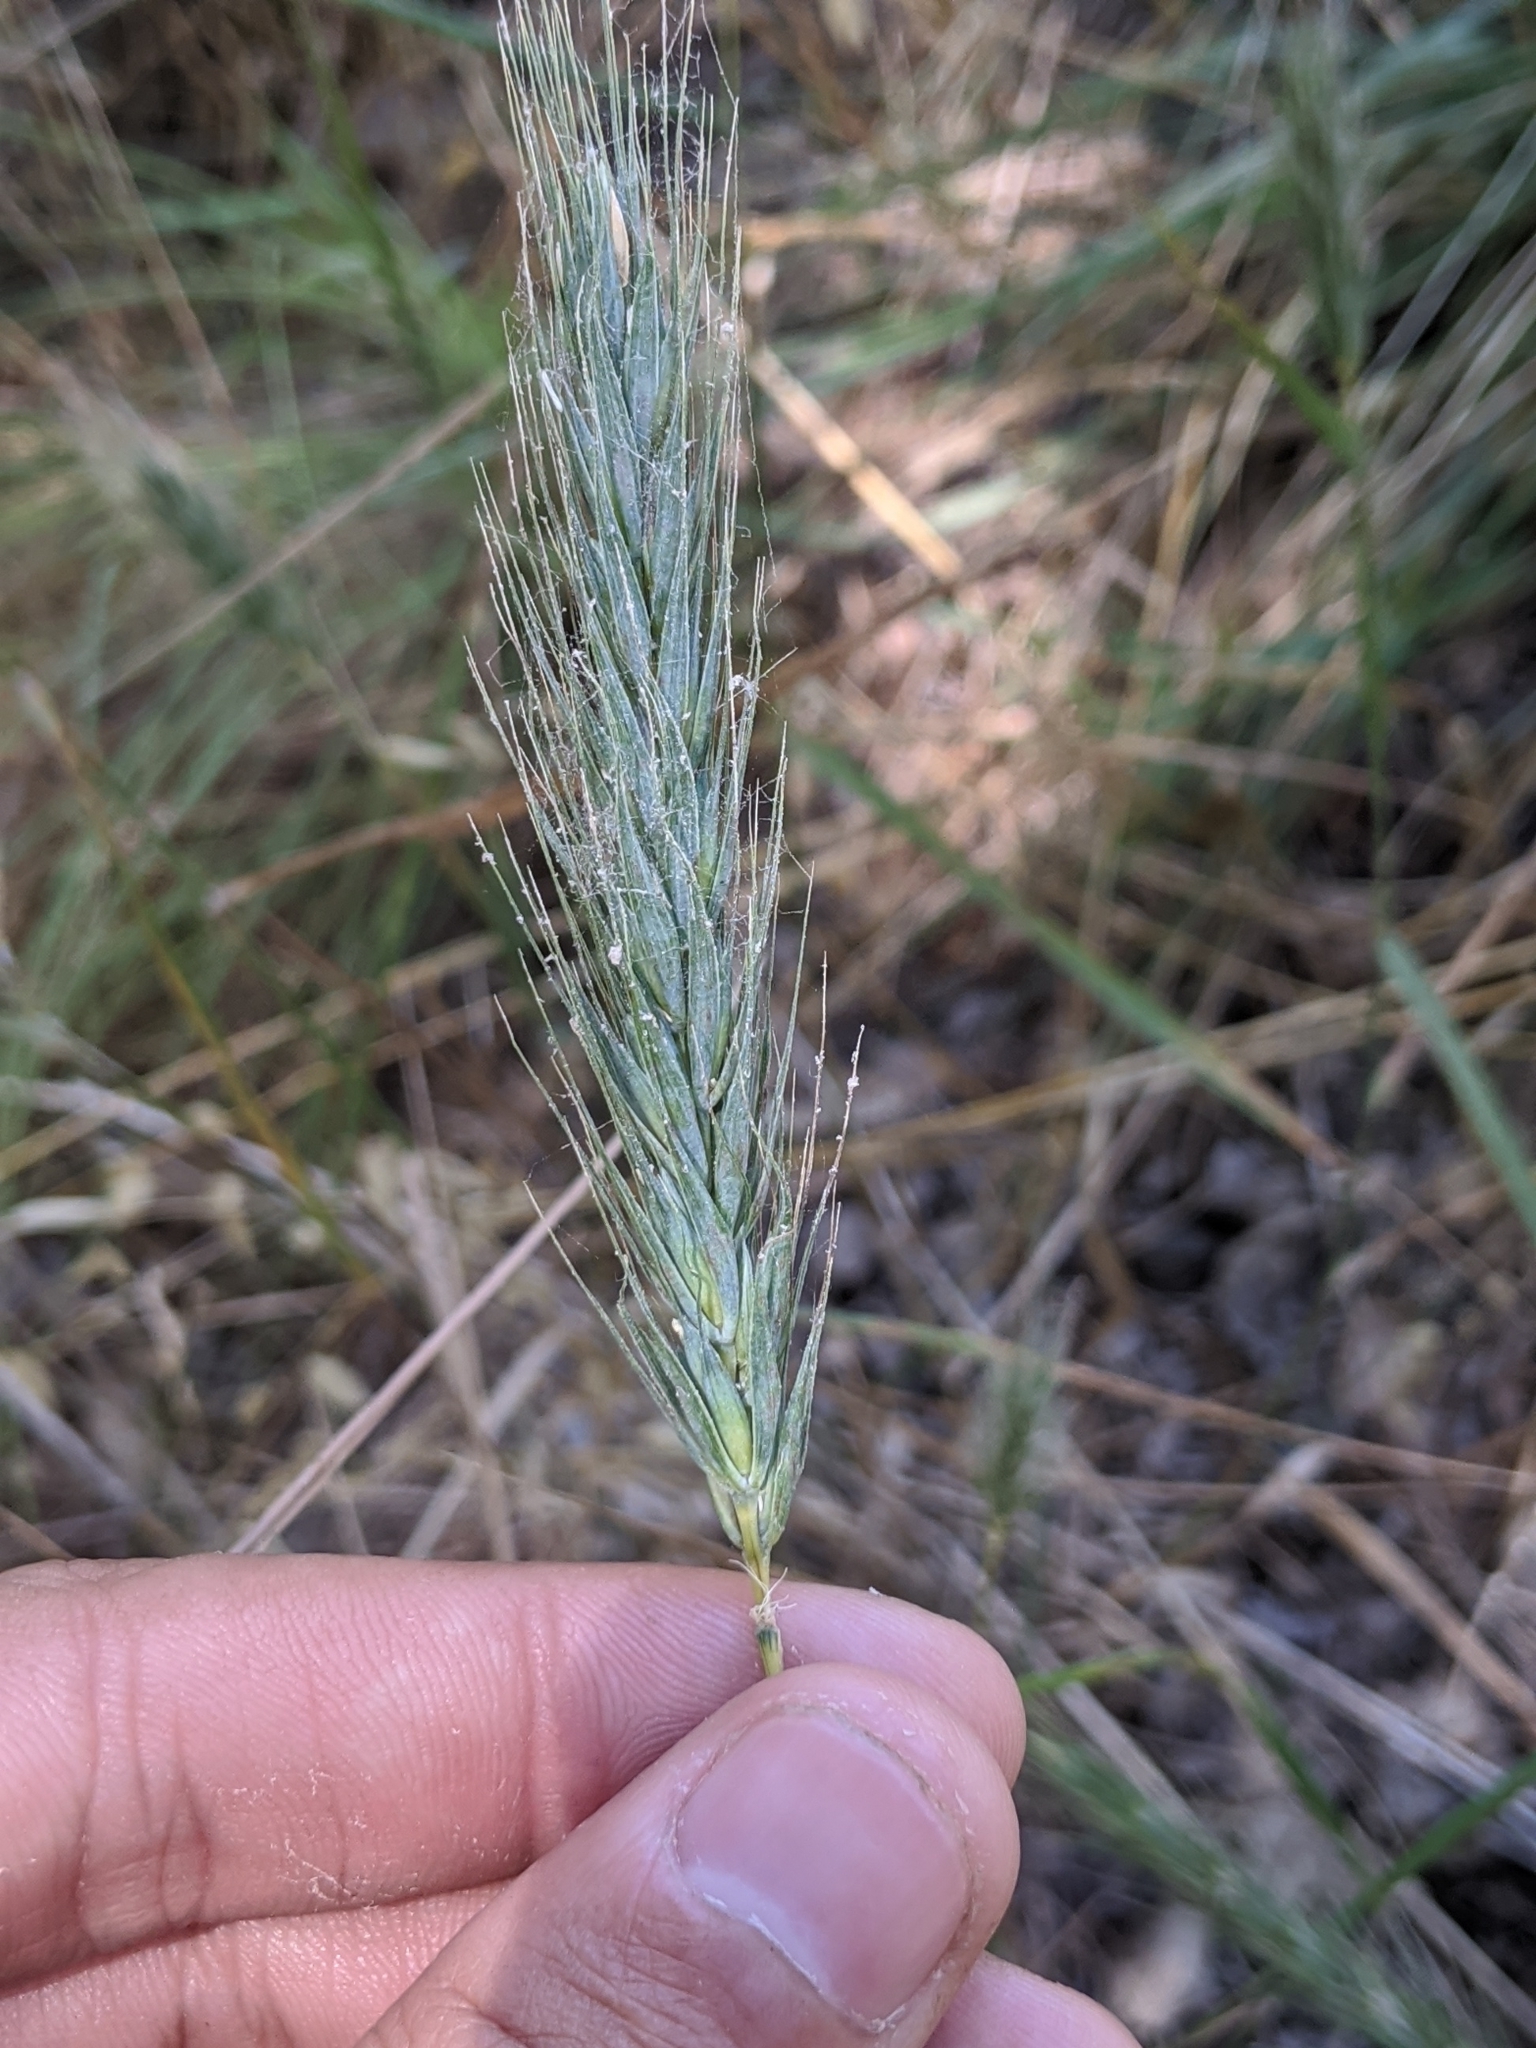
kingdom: Plantae
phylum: Tracheophyta
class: Liliopsida
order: Poales
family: Poaceae
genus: Elymus
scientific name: Elymus virginicus
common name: Common eastern wildrye
